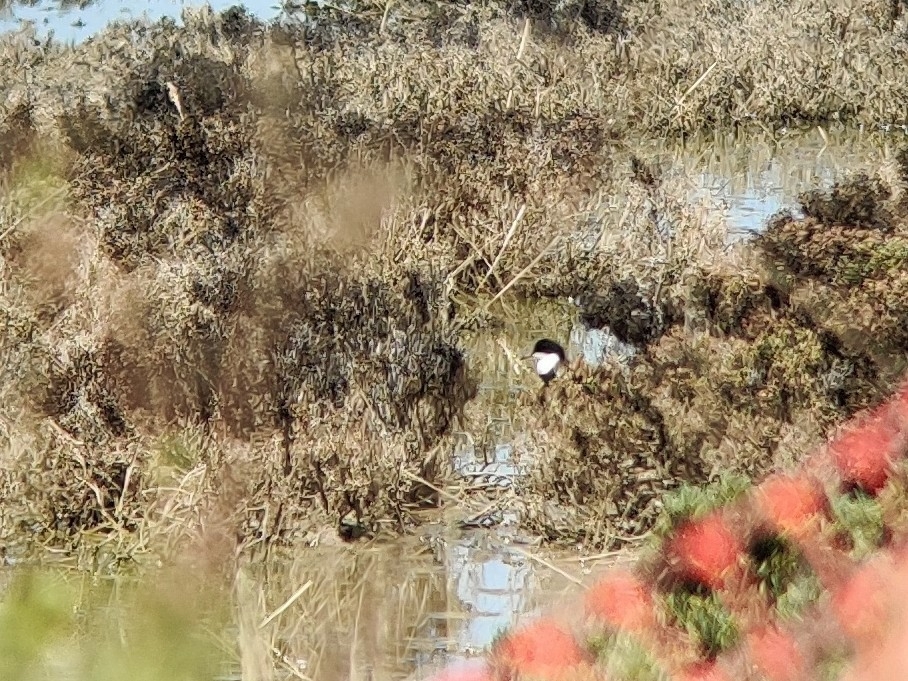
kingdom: Animalia
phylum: Chordata
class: Aves
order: Charadriiformes
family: Charadriidae
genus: Erythrogonys
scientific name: Erythrogonys cinctus
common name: Red-kneed dotterel
